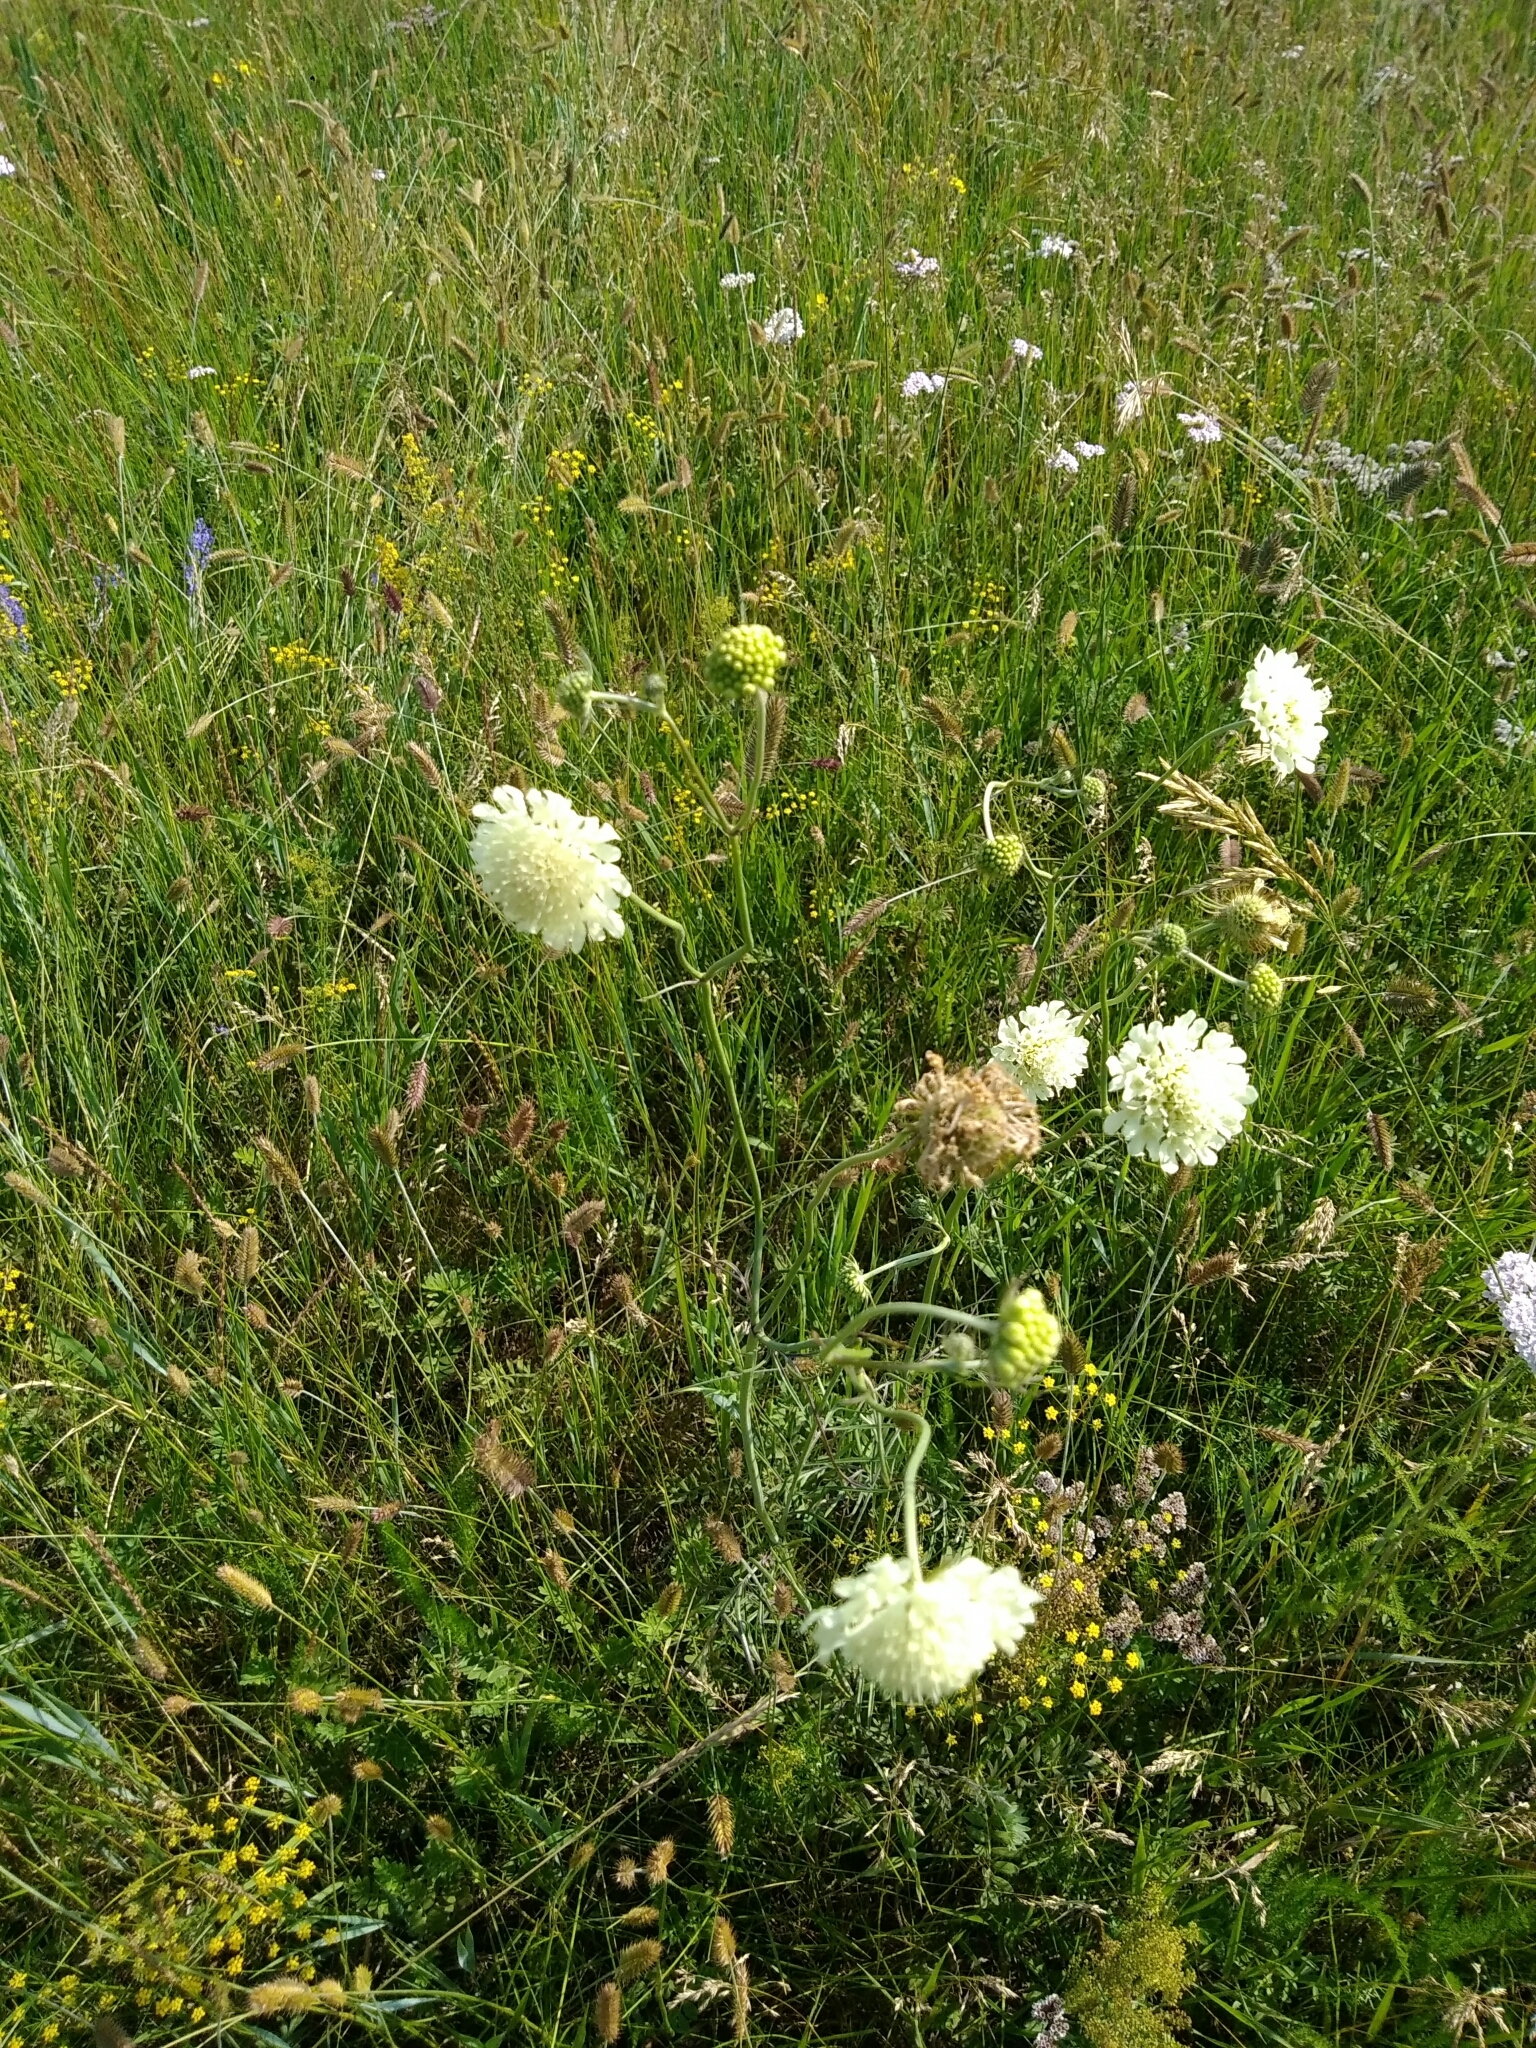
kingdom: Plantae
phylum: Tracheophyta
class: Magnoliopsida
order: Dipsacales
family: Caprifoliaceae
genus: Scabiosa
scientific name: Scabiosa ochroleuca
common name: Cream pincushions
